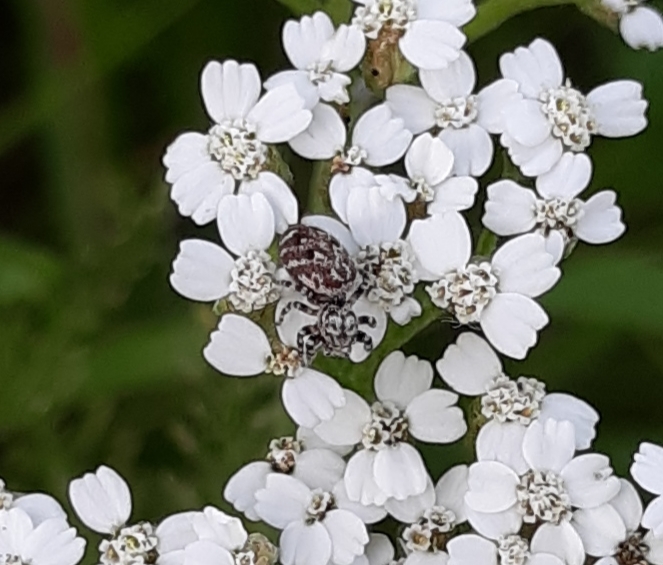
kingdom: Animalia
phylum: Arthropoda
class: Arachnida
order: Araneae
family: Salticidae
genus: Pelegrina
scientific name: Pelegrina galathea
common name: Jumping spiders
